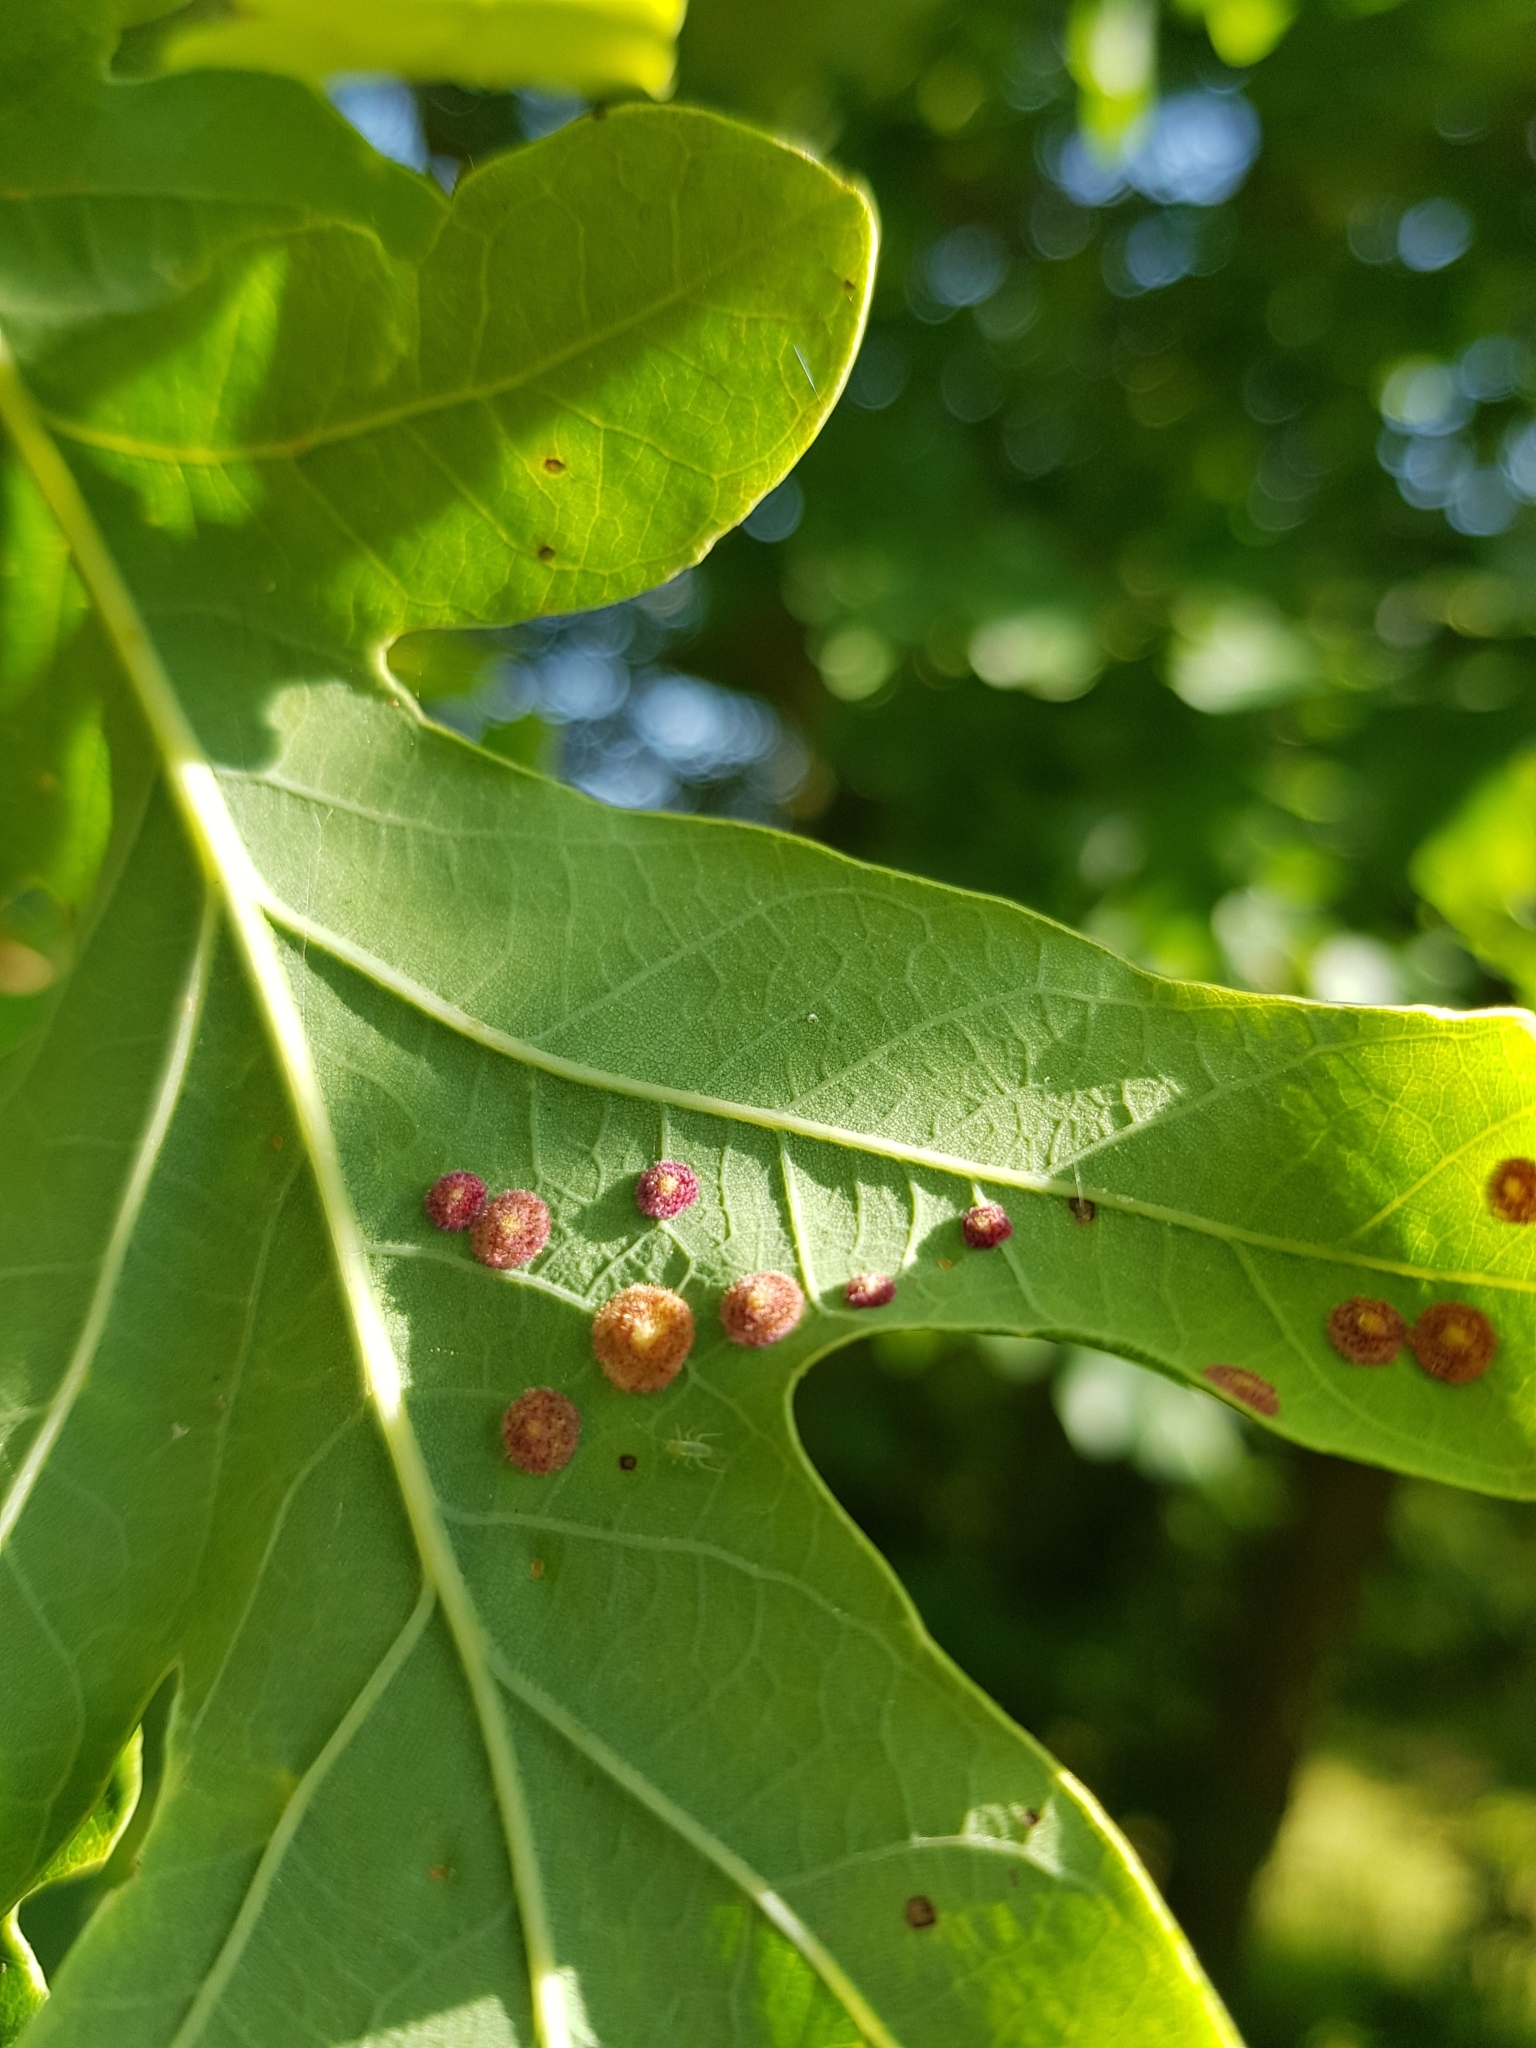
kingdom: Animalia
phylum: Arthropoda
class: Insecta
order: Hymenoptera
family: Cynipidae
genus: Neuroterus
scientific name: Neuroterus quercusbaccarum
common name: Common spangle gall
